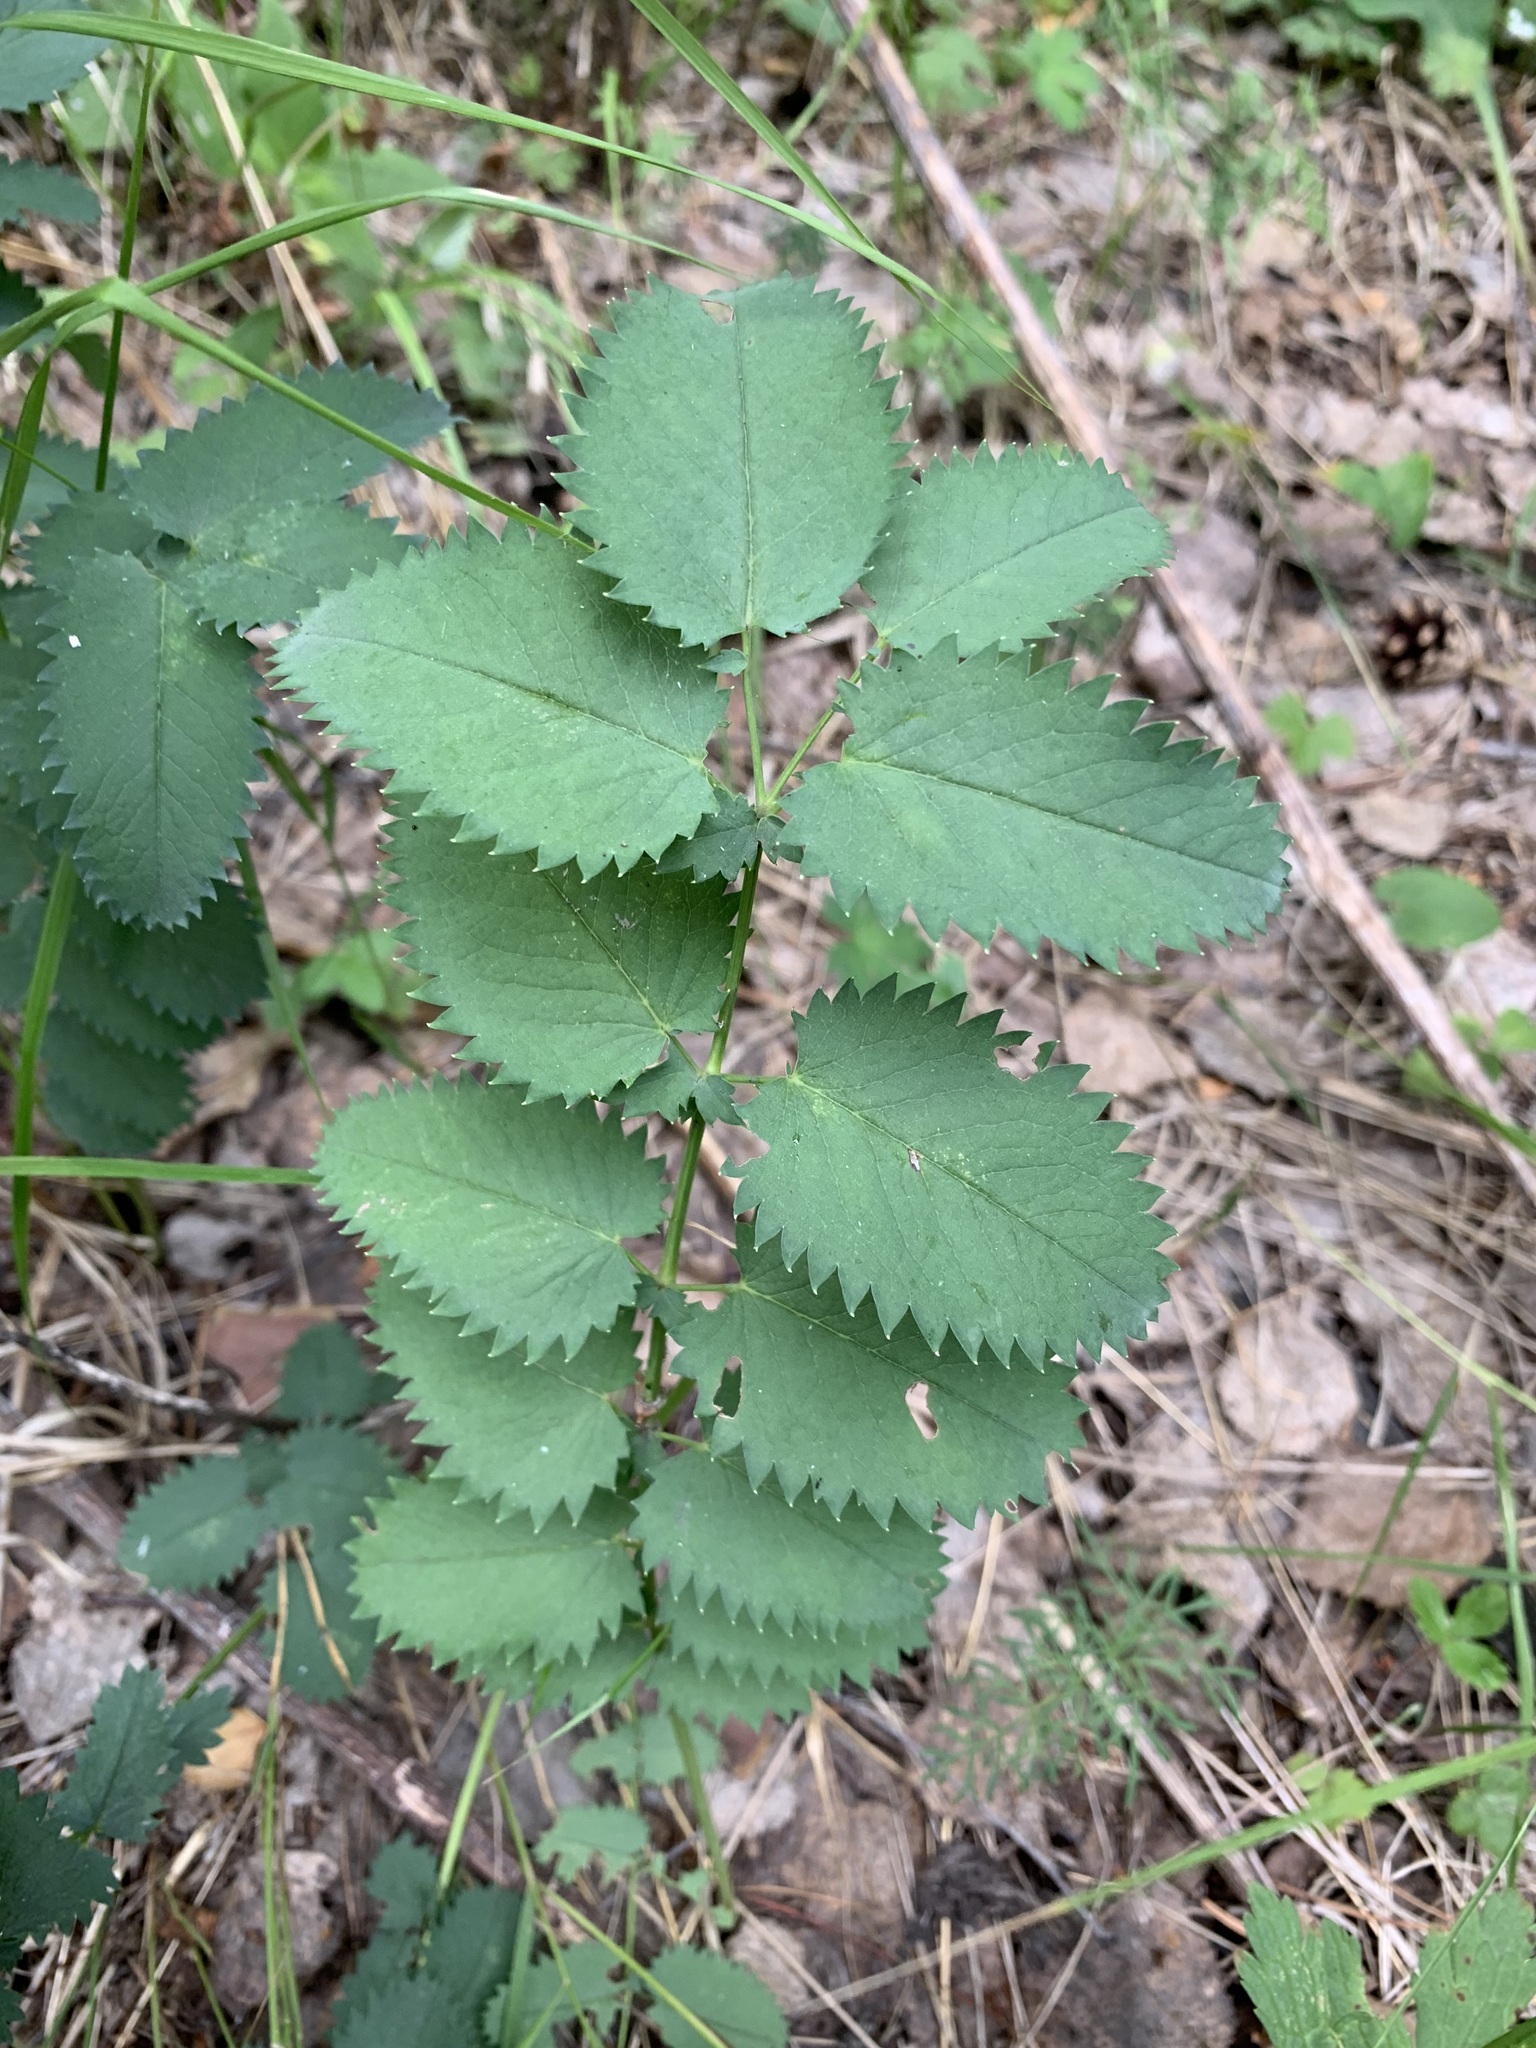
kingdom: Plantae
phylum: Tracheophyta
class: Magnoliopsida
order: Rosales
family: Rosaceae
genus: Sanguisorba
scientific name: Sanguisorba officinalis
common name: Great burnet
